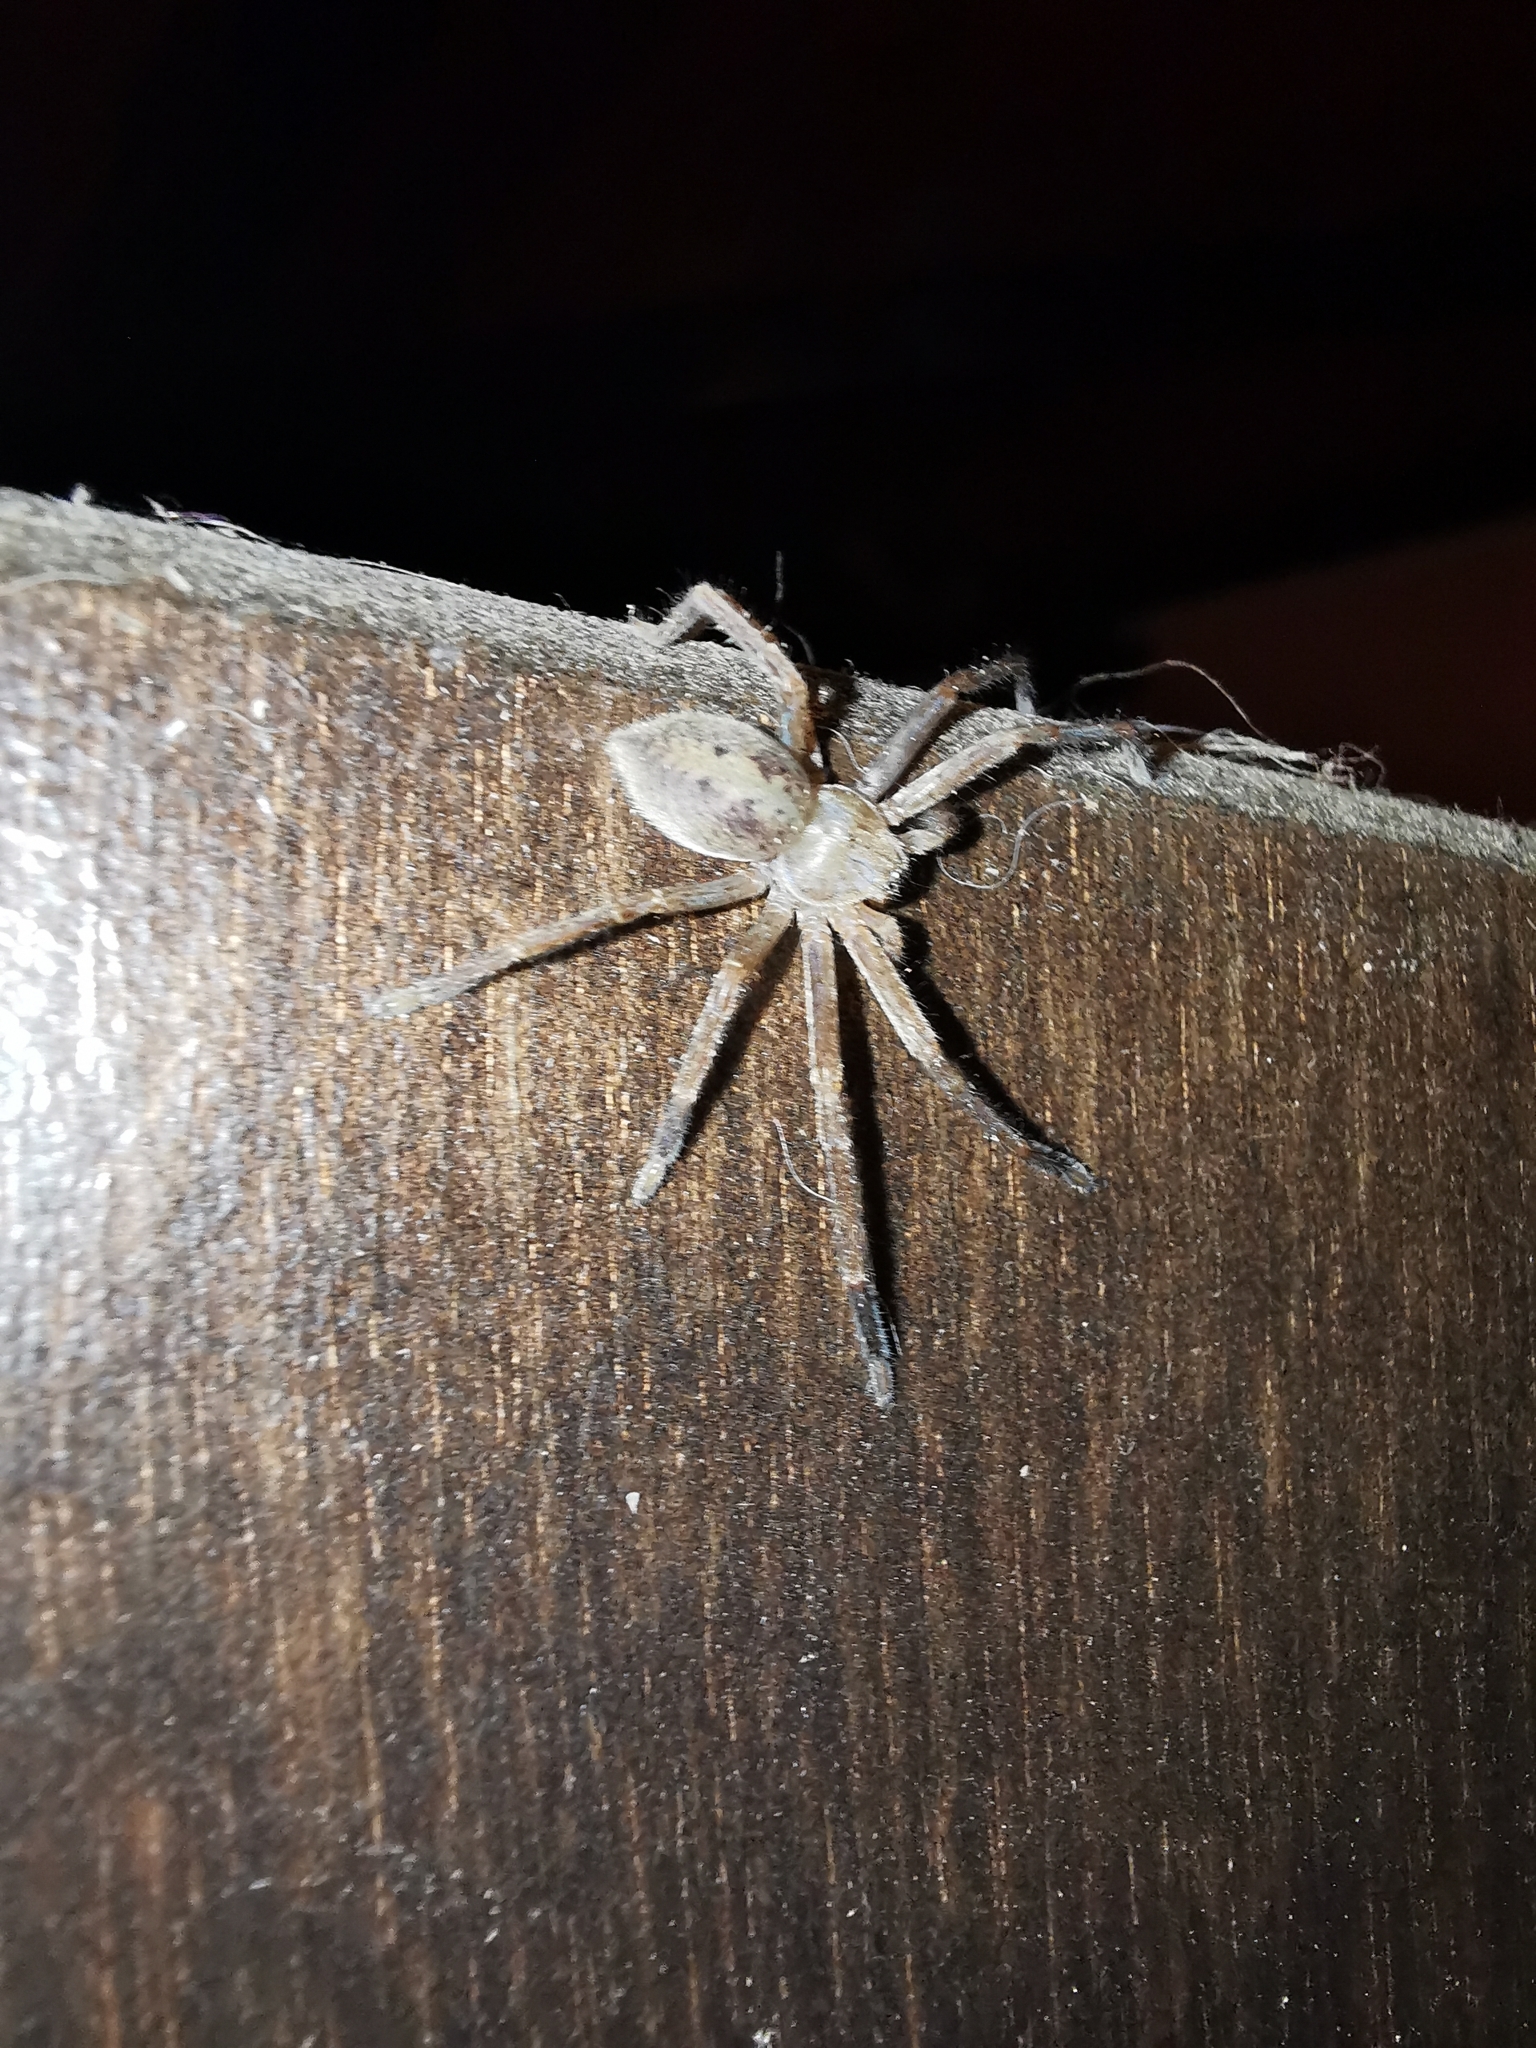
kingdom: Animalia
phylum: Arthropoda
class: Arachnida
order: Araneae
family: Sparassidae
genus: Olios
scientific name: Olios argelasius
